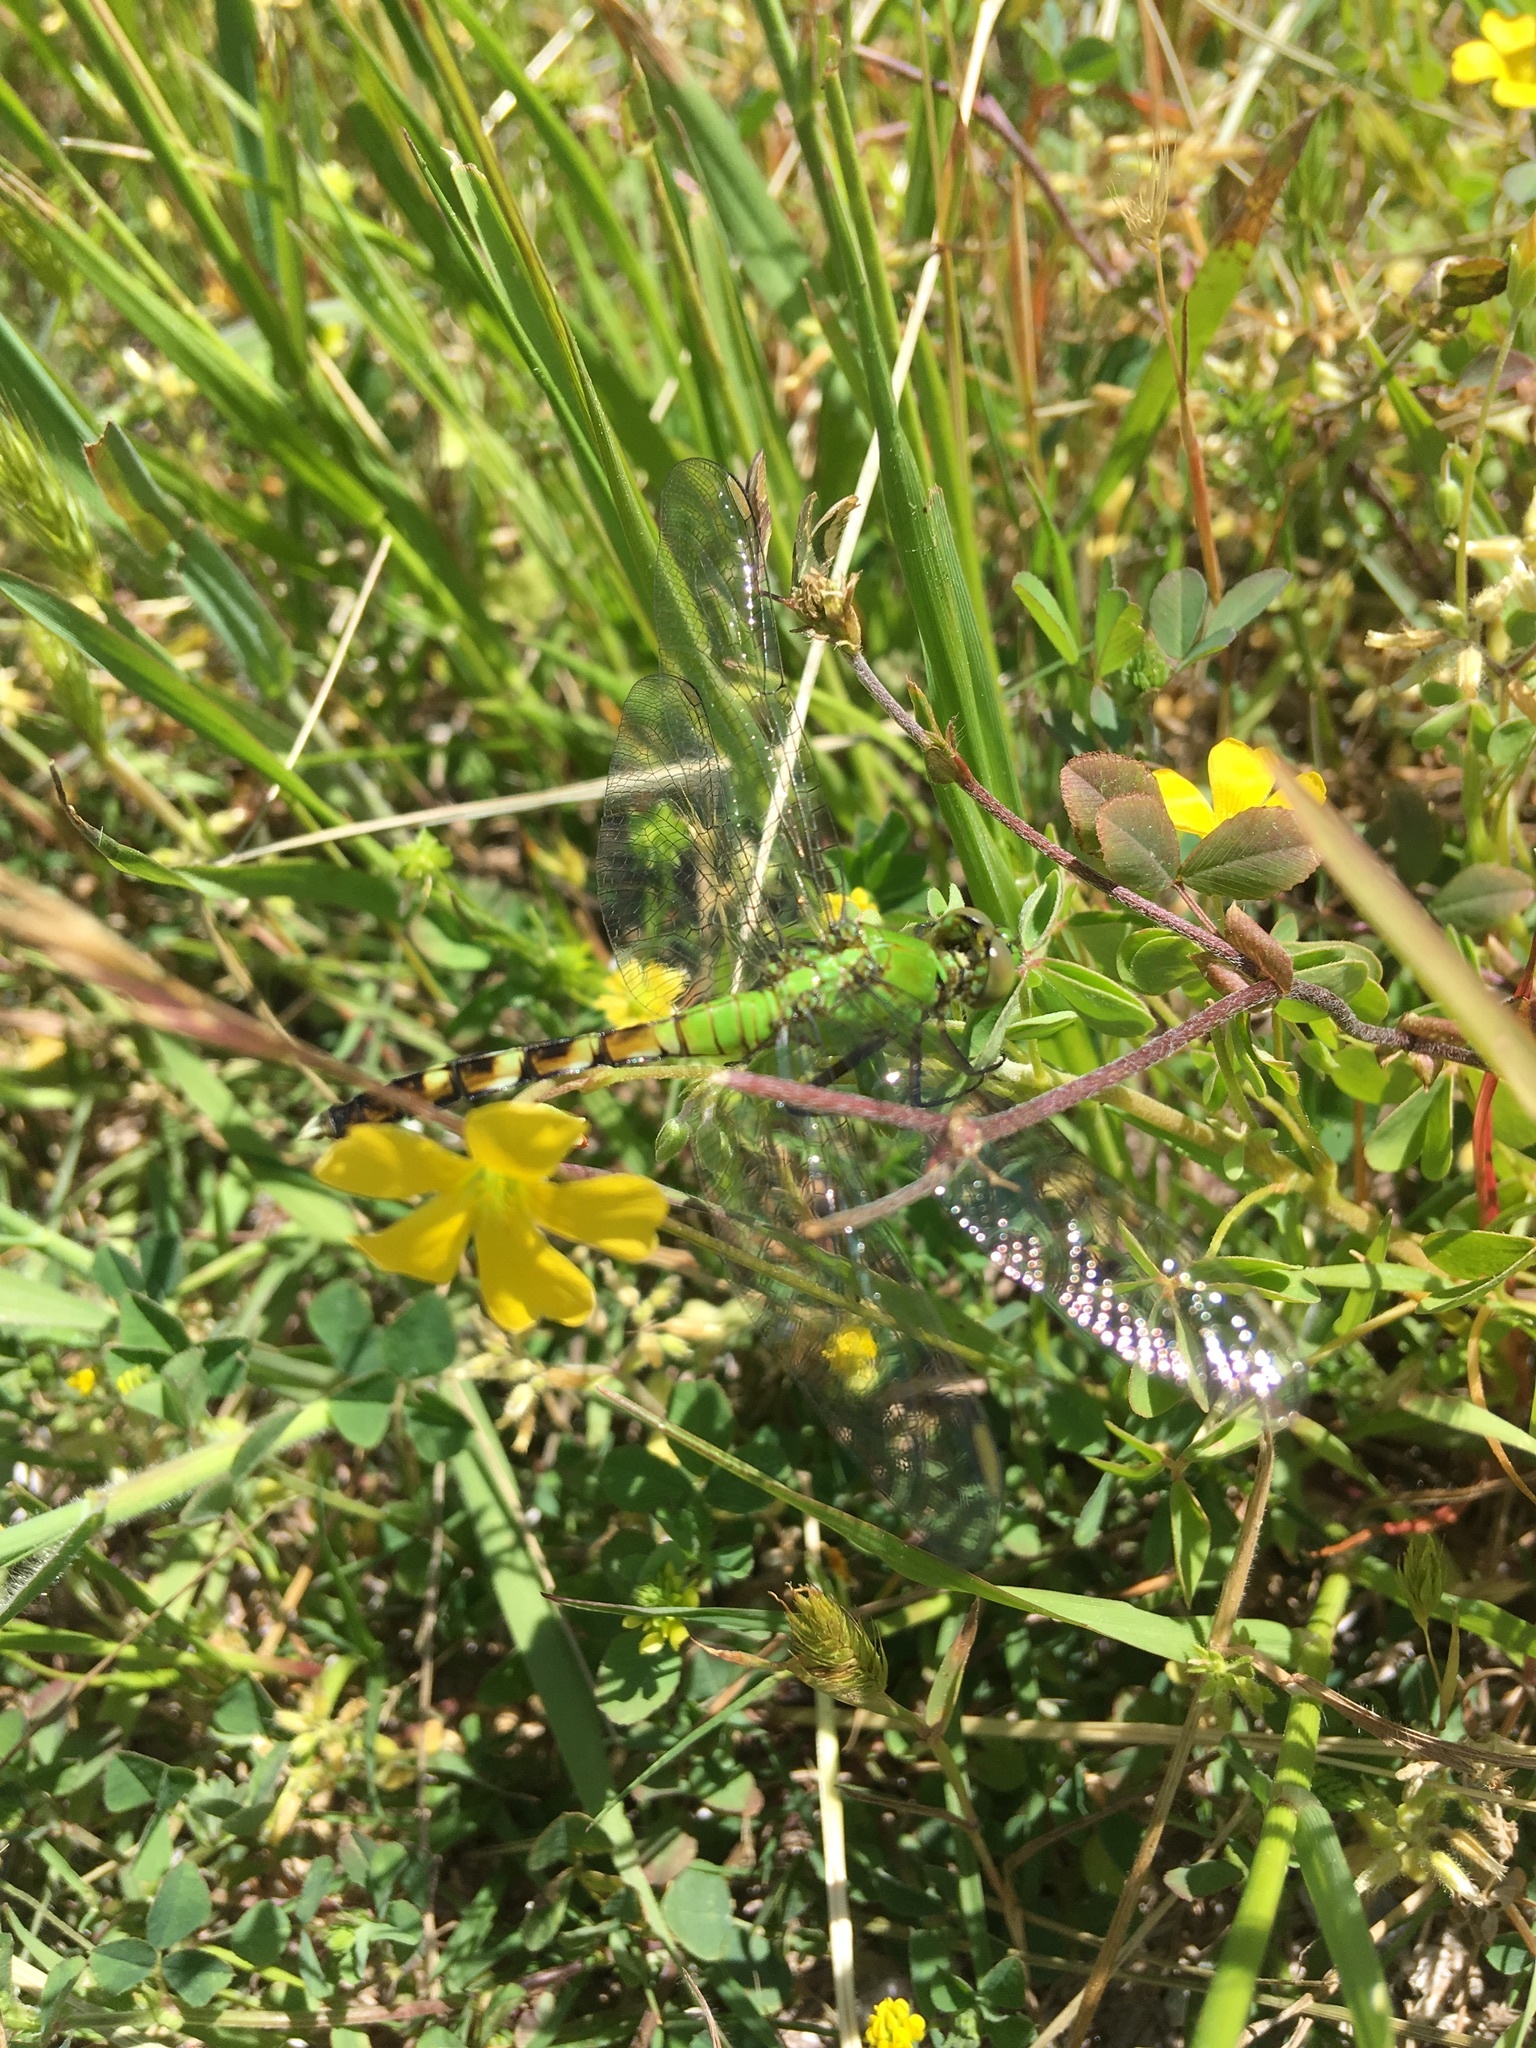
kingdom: Animalia
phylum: Arthropoda
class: Insecta
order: Odonata
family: Libellulidae
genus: Erythemis
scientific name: Erythemis simplicicollis
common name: Eastern pondhawk
